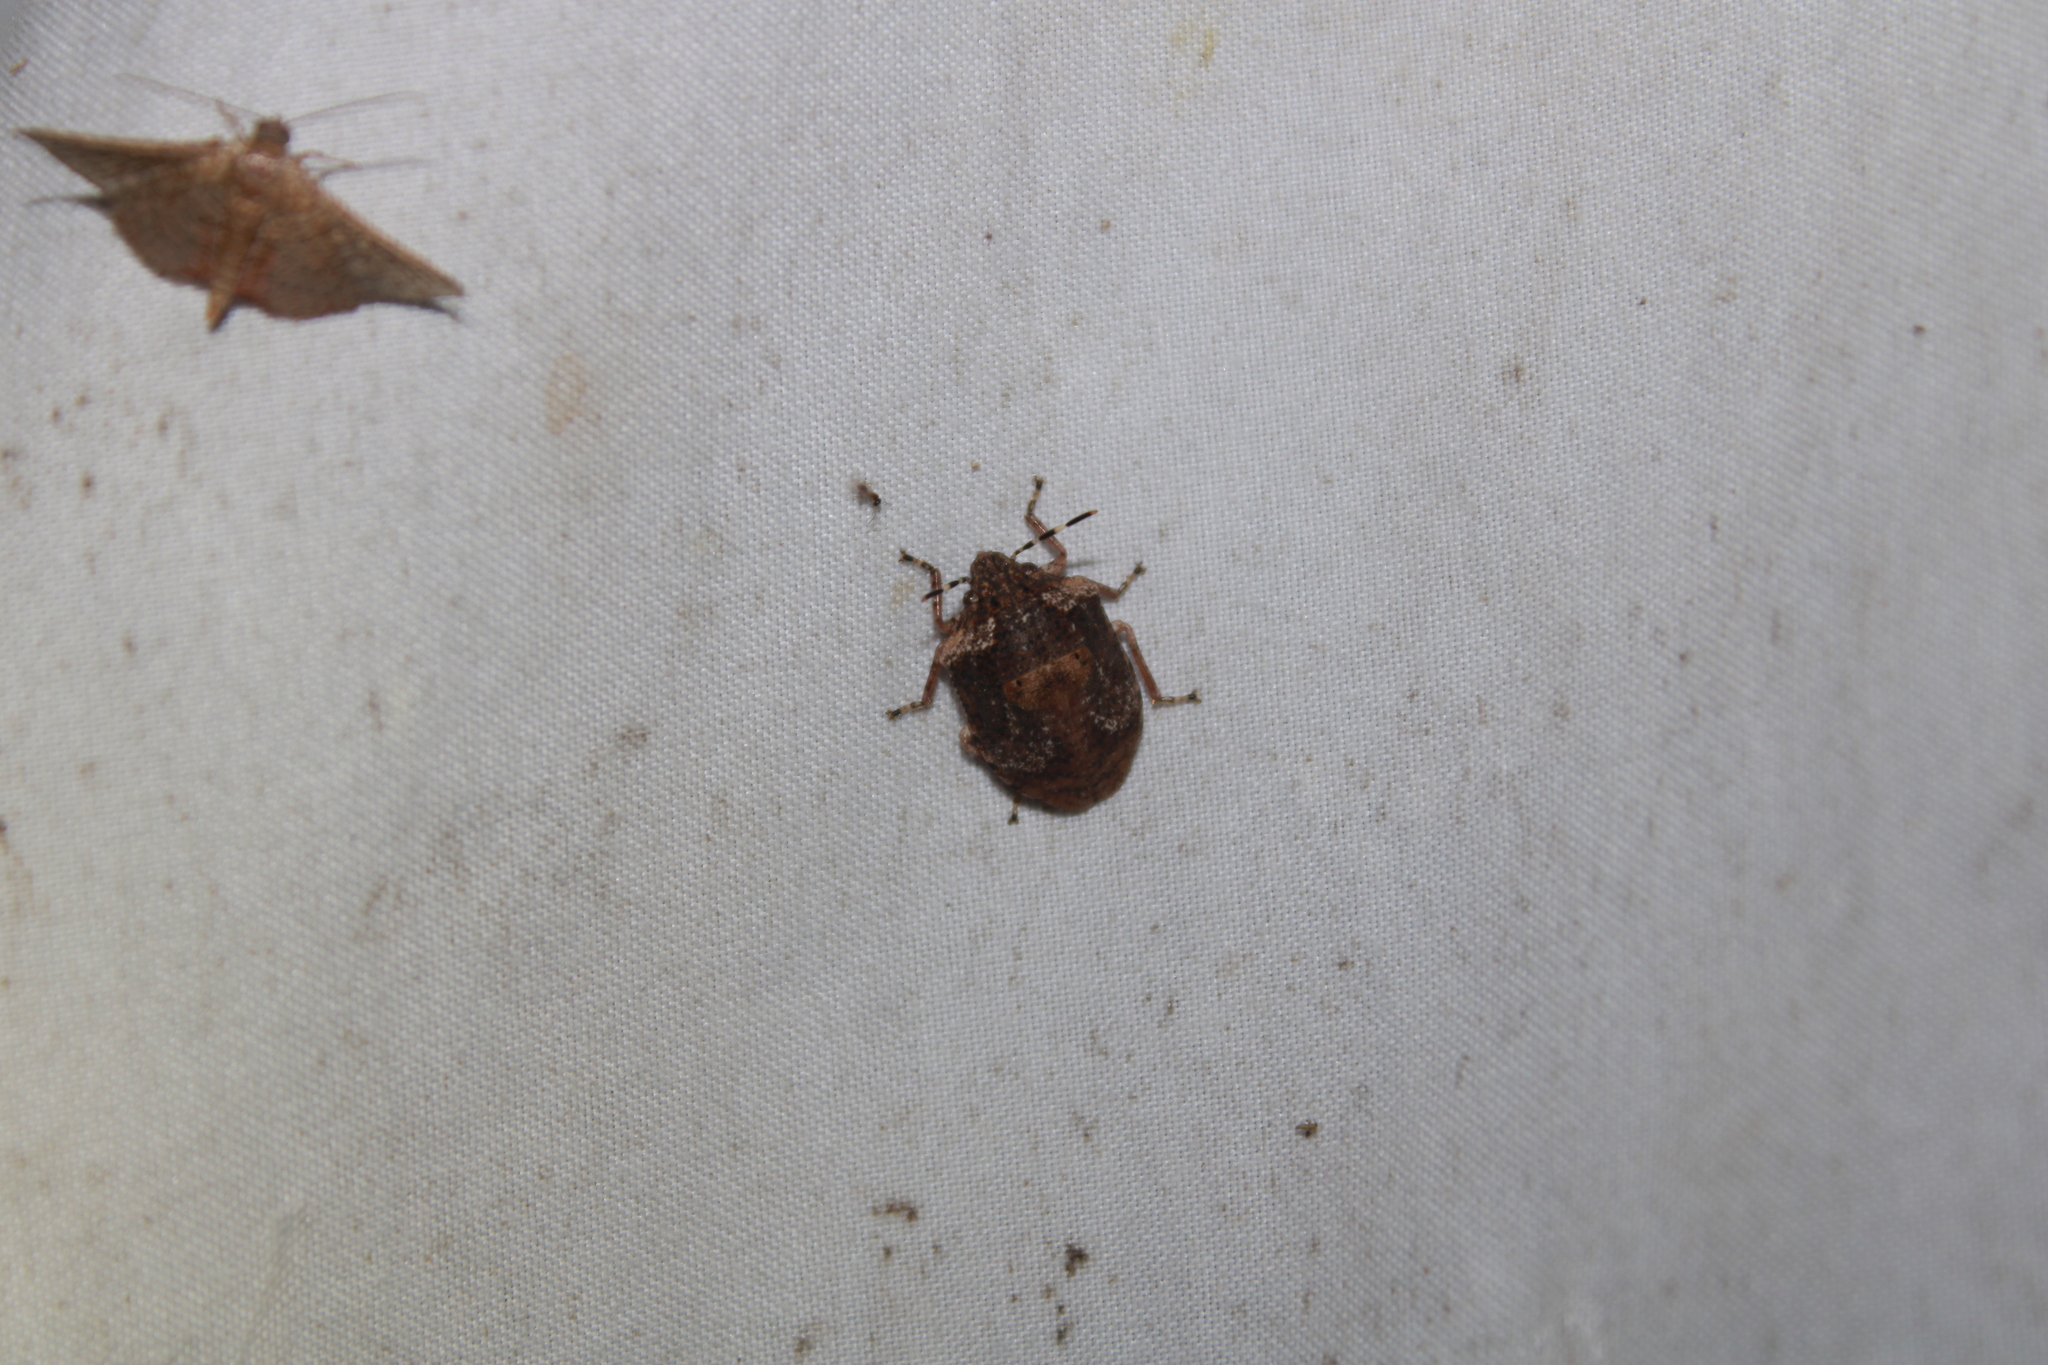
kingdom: Animalia
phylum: Arthropoda
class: Insecta
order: Hemiptera
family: Scutelleridae
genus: Tetyra
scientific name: Tetyra antillarum
